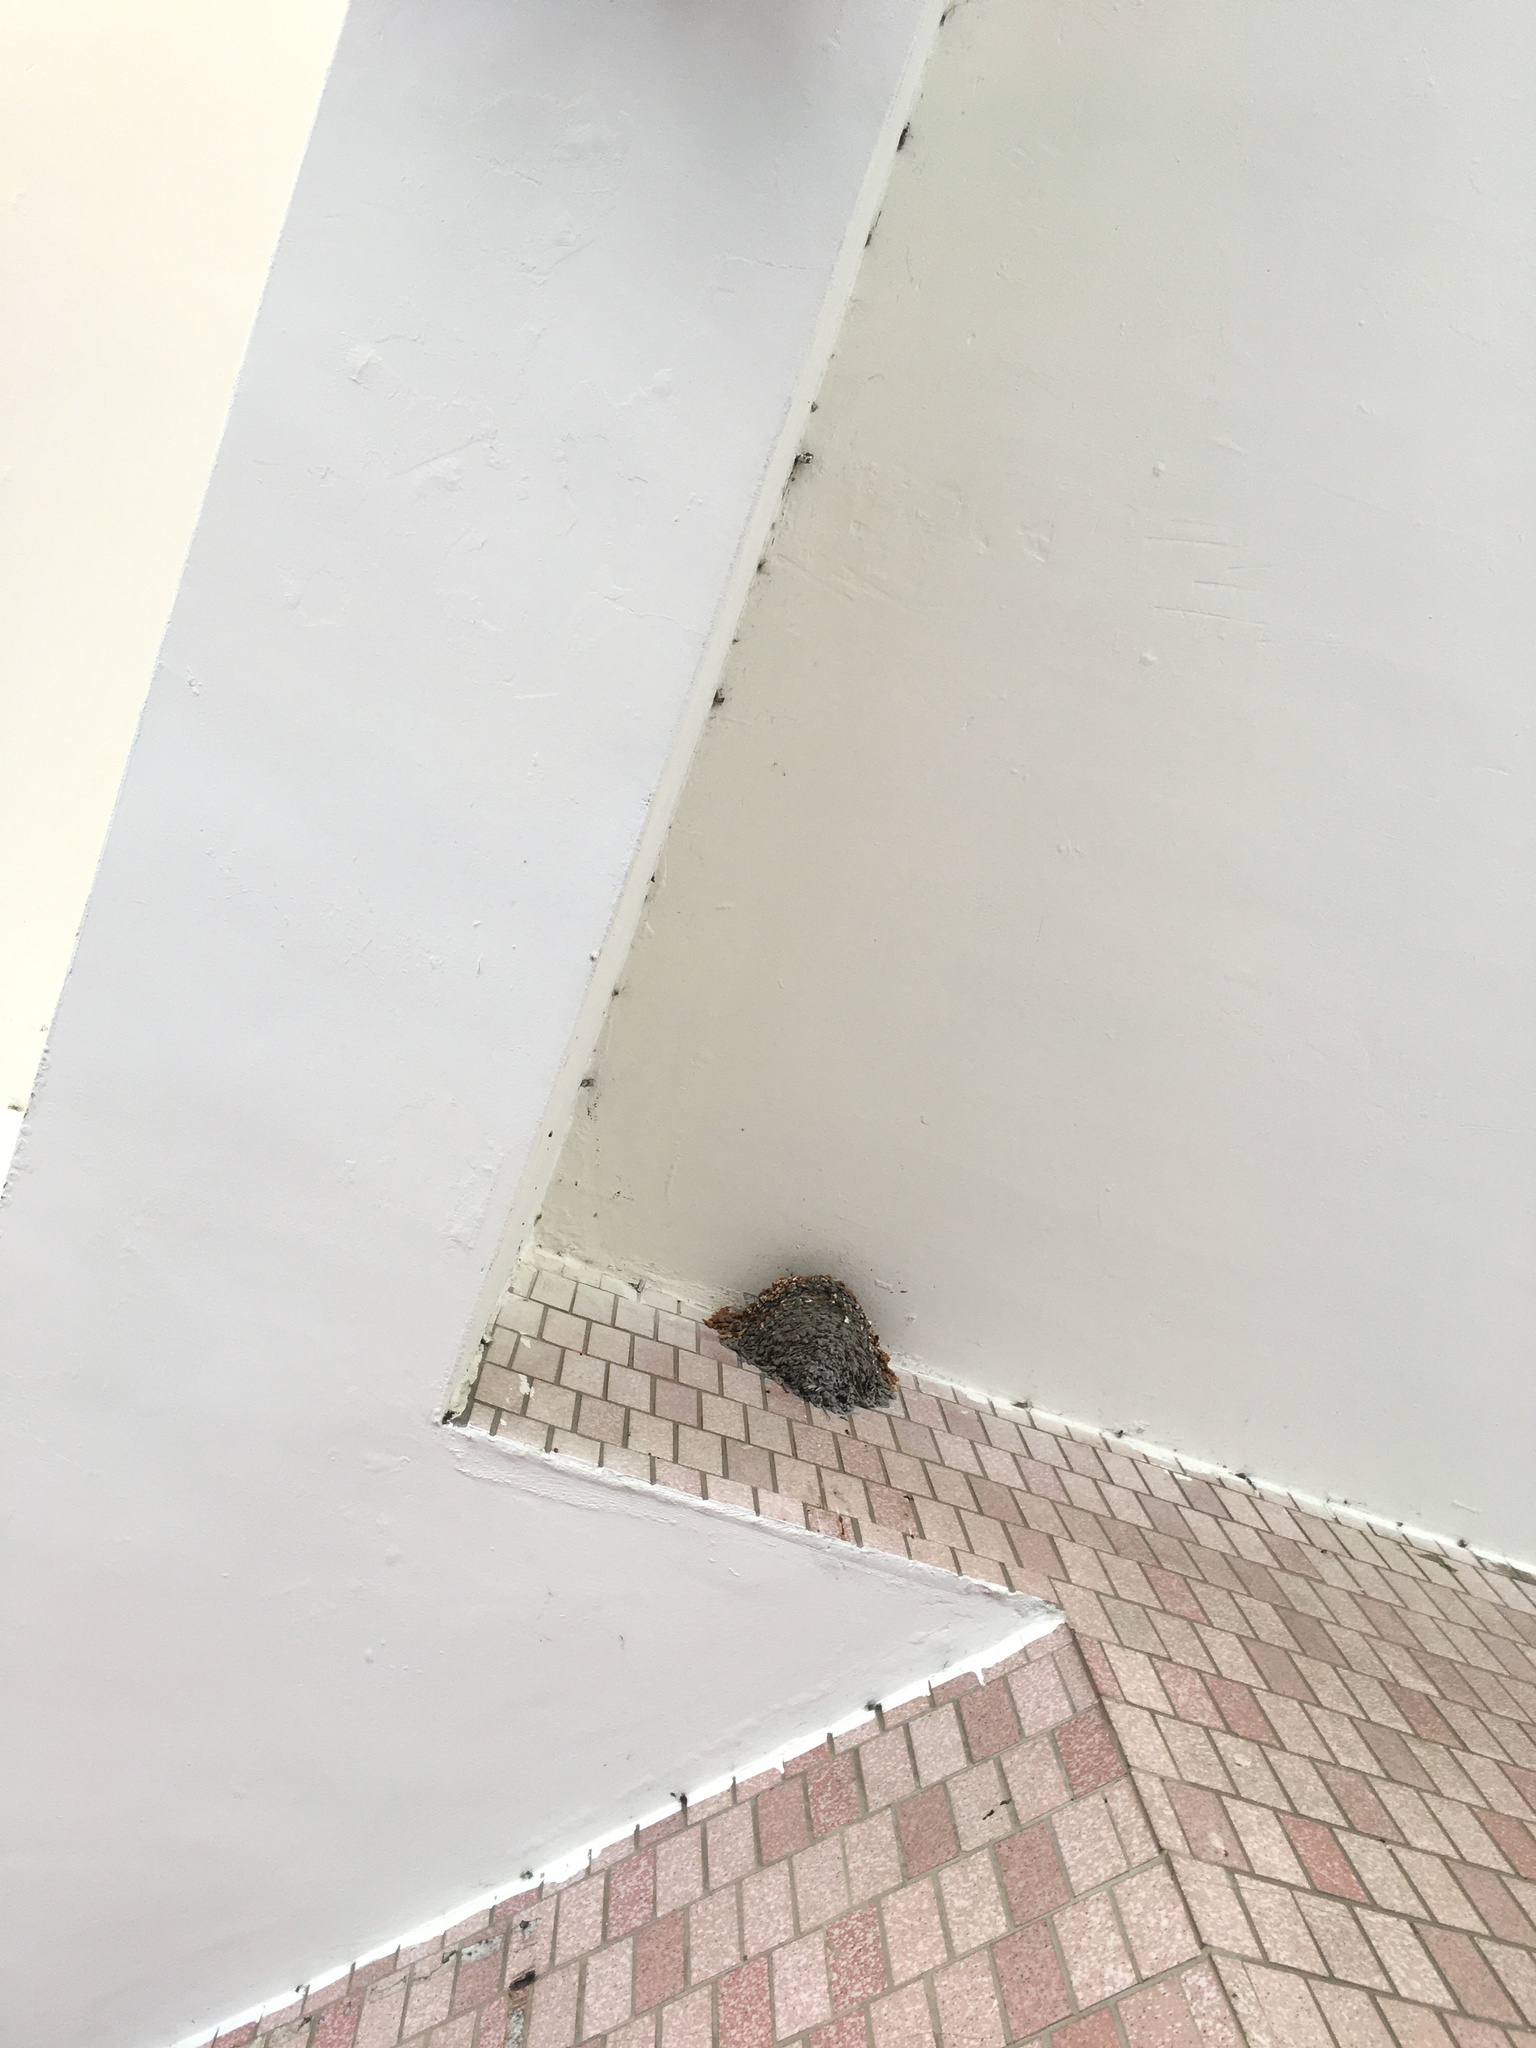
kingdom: Animalia
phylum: Chordata
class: Aves
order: Passeriformes
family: Hirundinidae
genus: Hirundo
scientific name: Hirundo rustica
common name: Barn swallow
